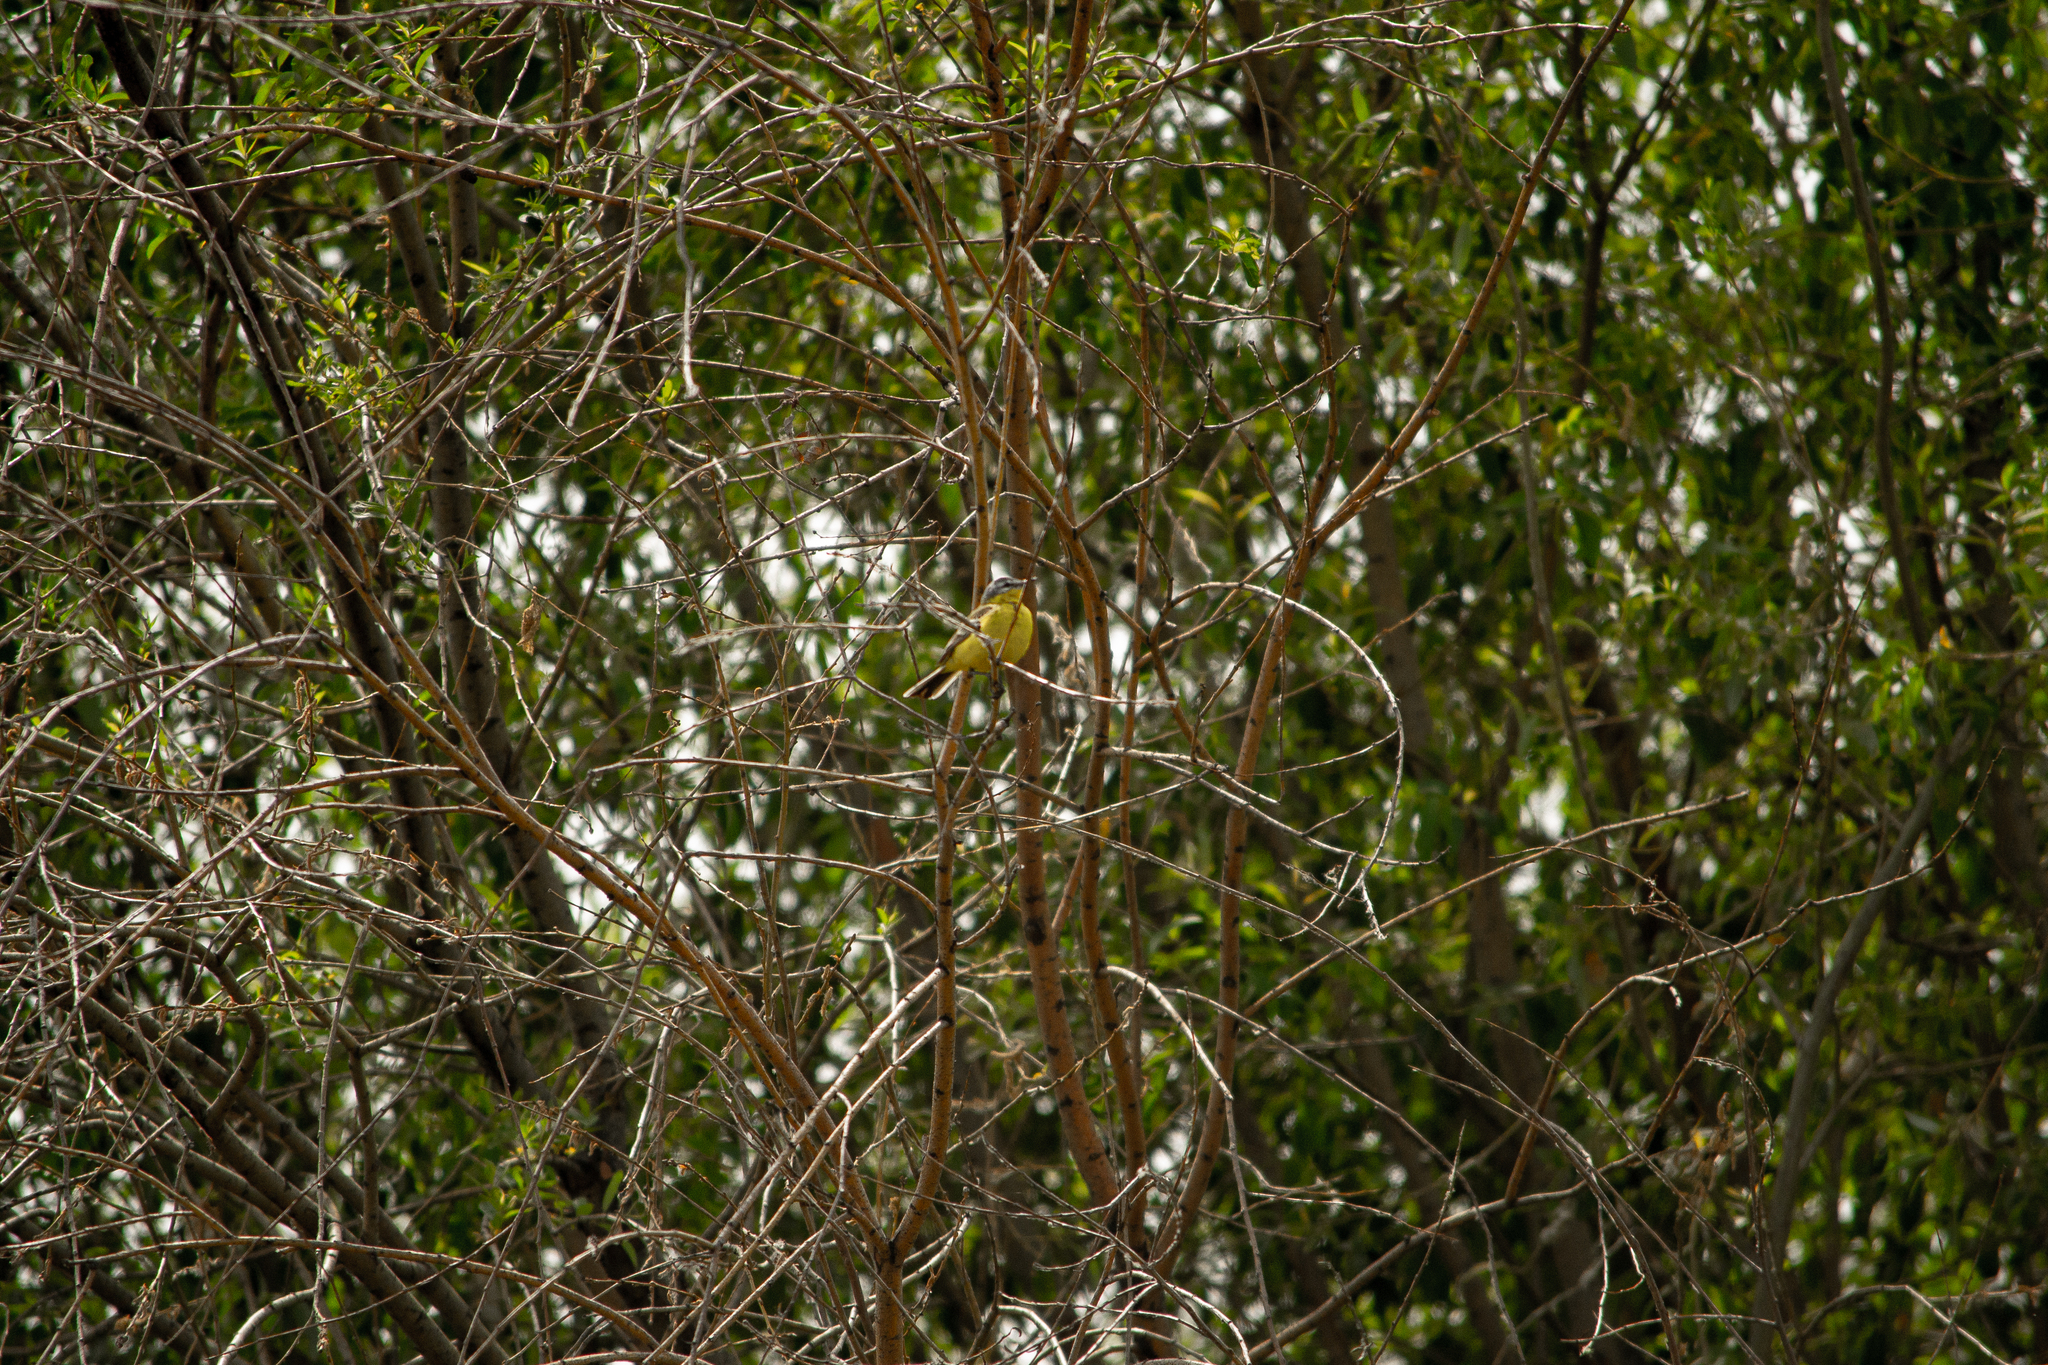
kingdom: Animalia
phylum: Chordata
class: Aves
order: Passeriformes
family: Motacillidae
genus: Motacilla
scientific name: Motacilla flava
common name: Western yellow wagtail
